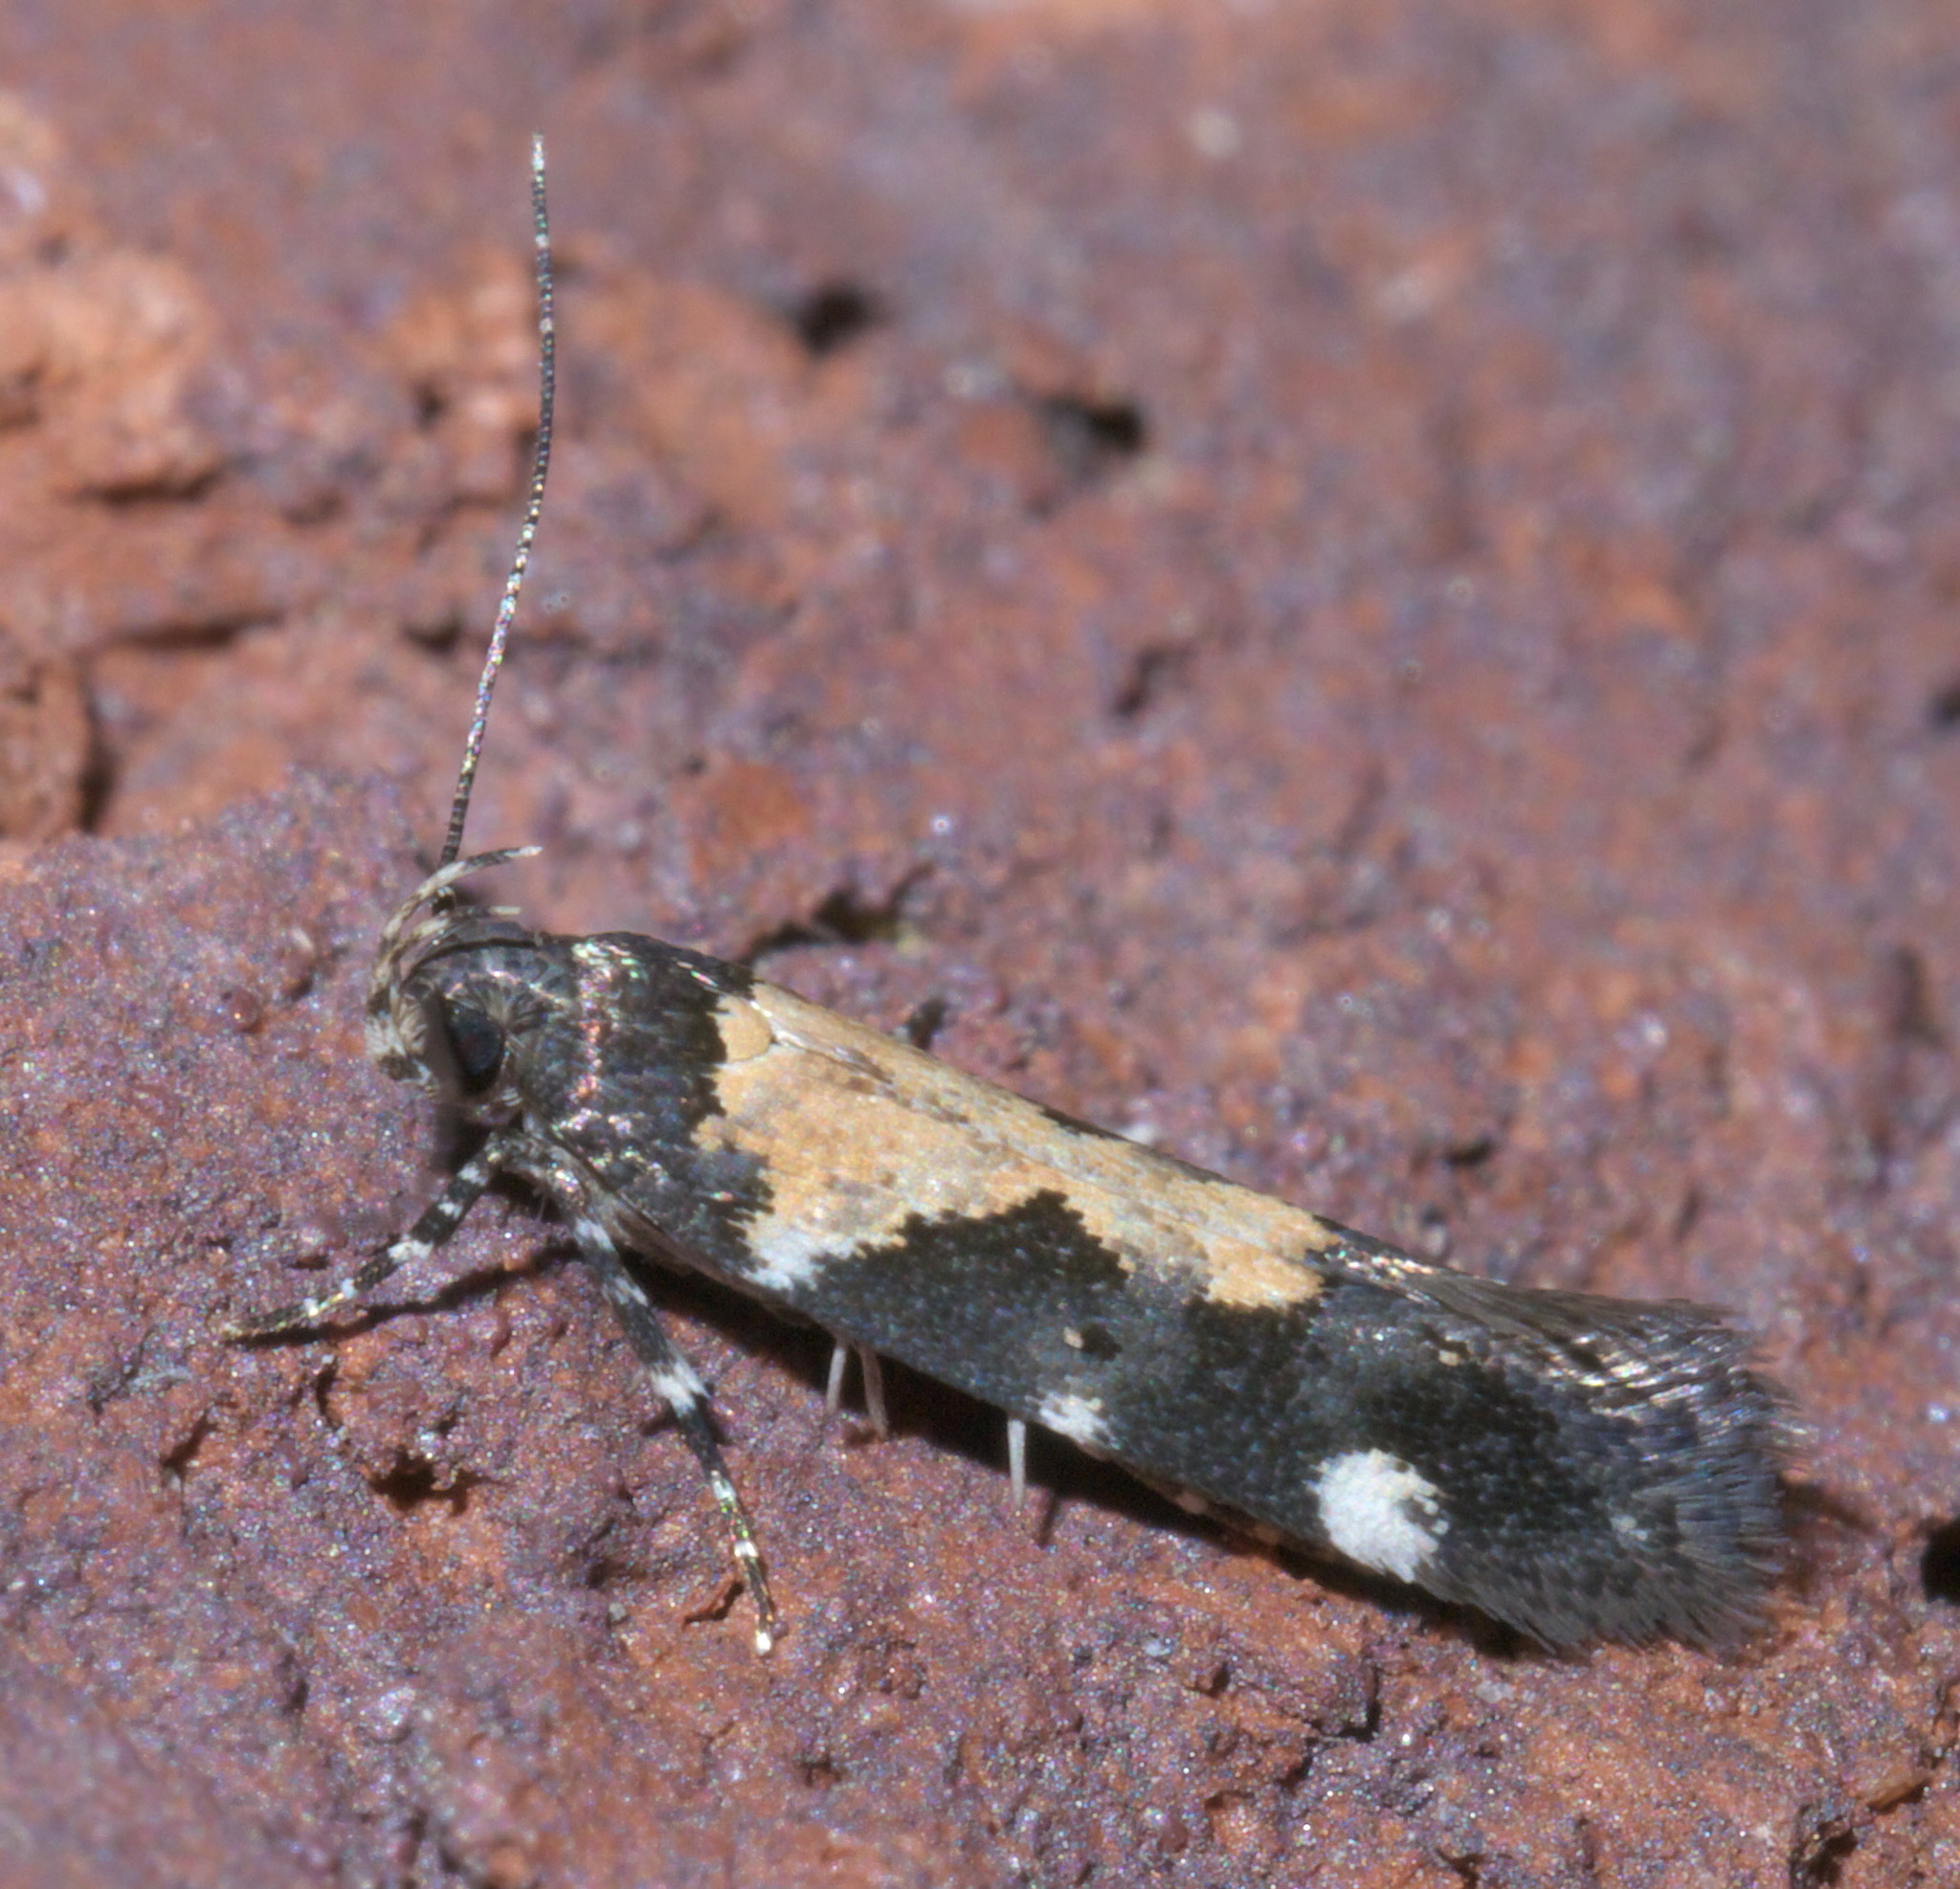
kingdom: Animalia
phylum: Arthropoda
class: Insecta
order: Lepidoptera
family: Gelechiidae
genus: Stegasta
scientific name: Stegasta bosqueella
